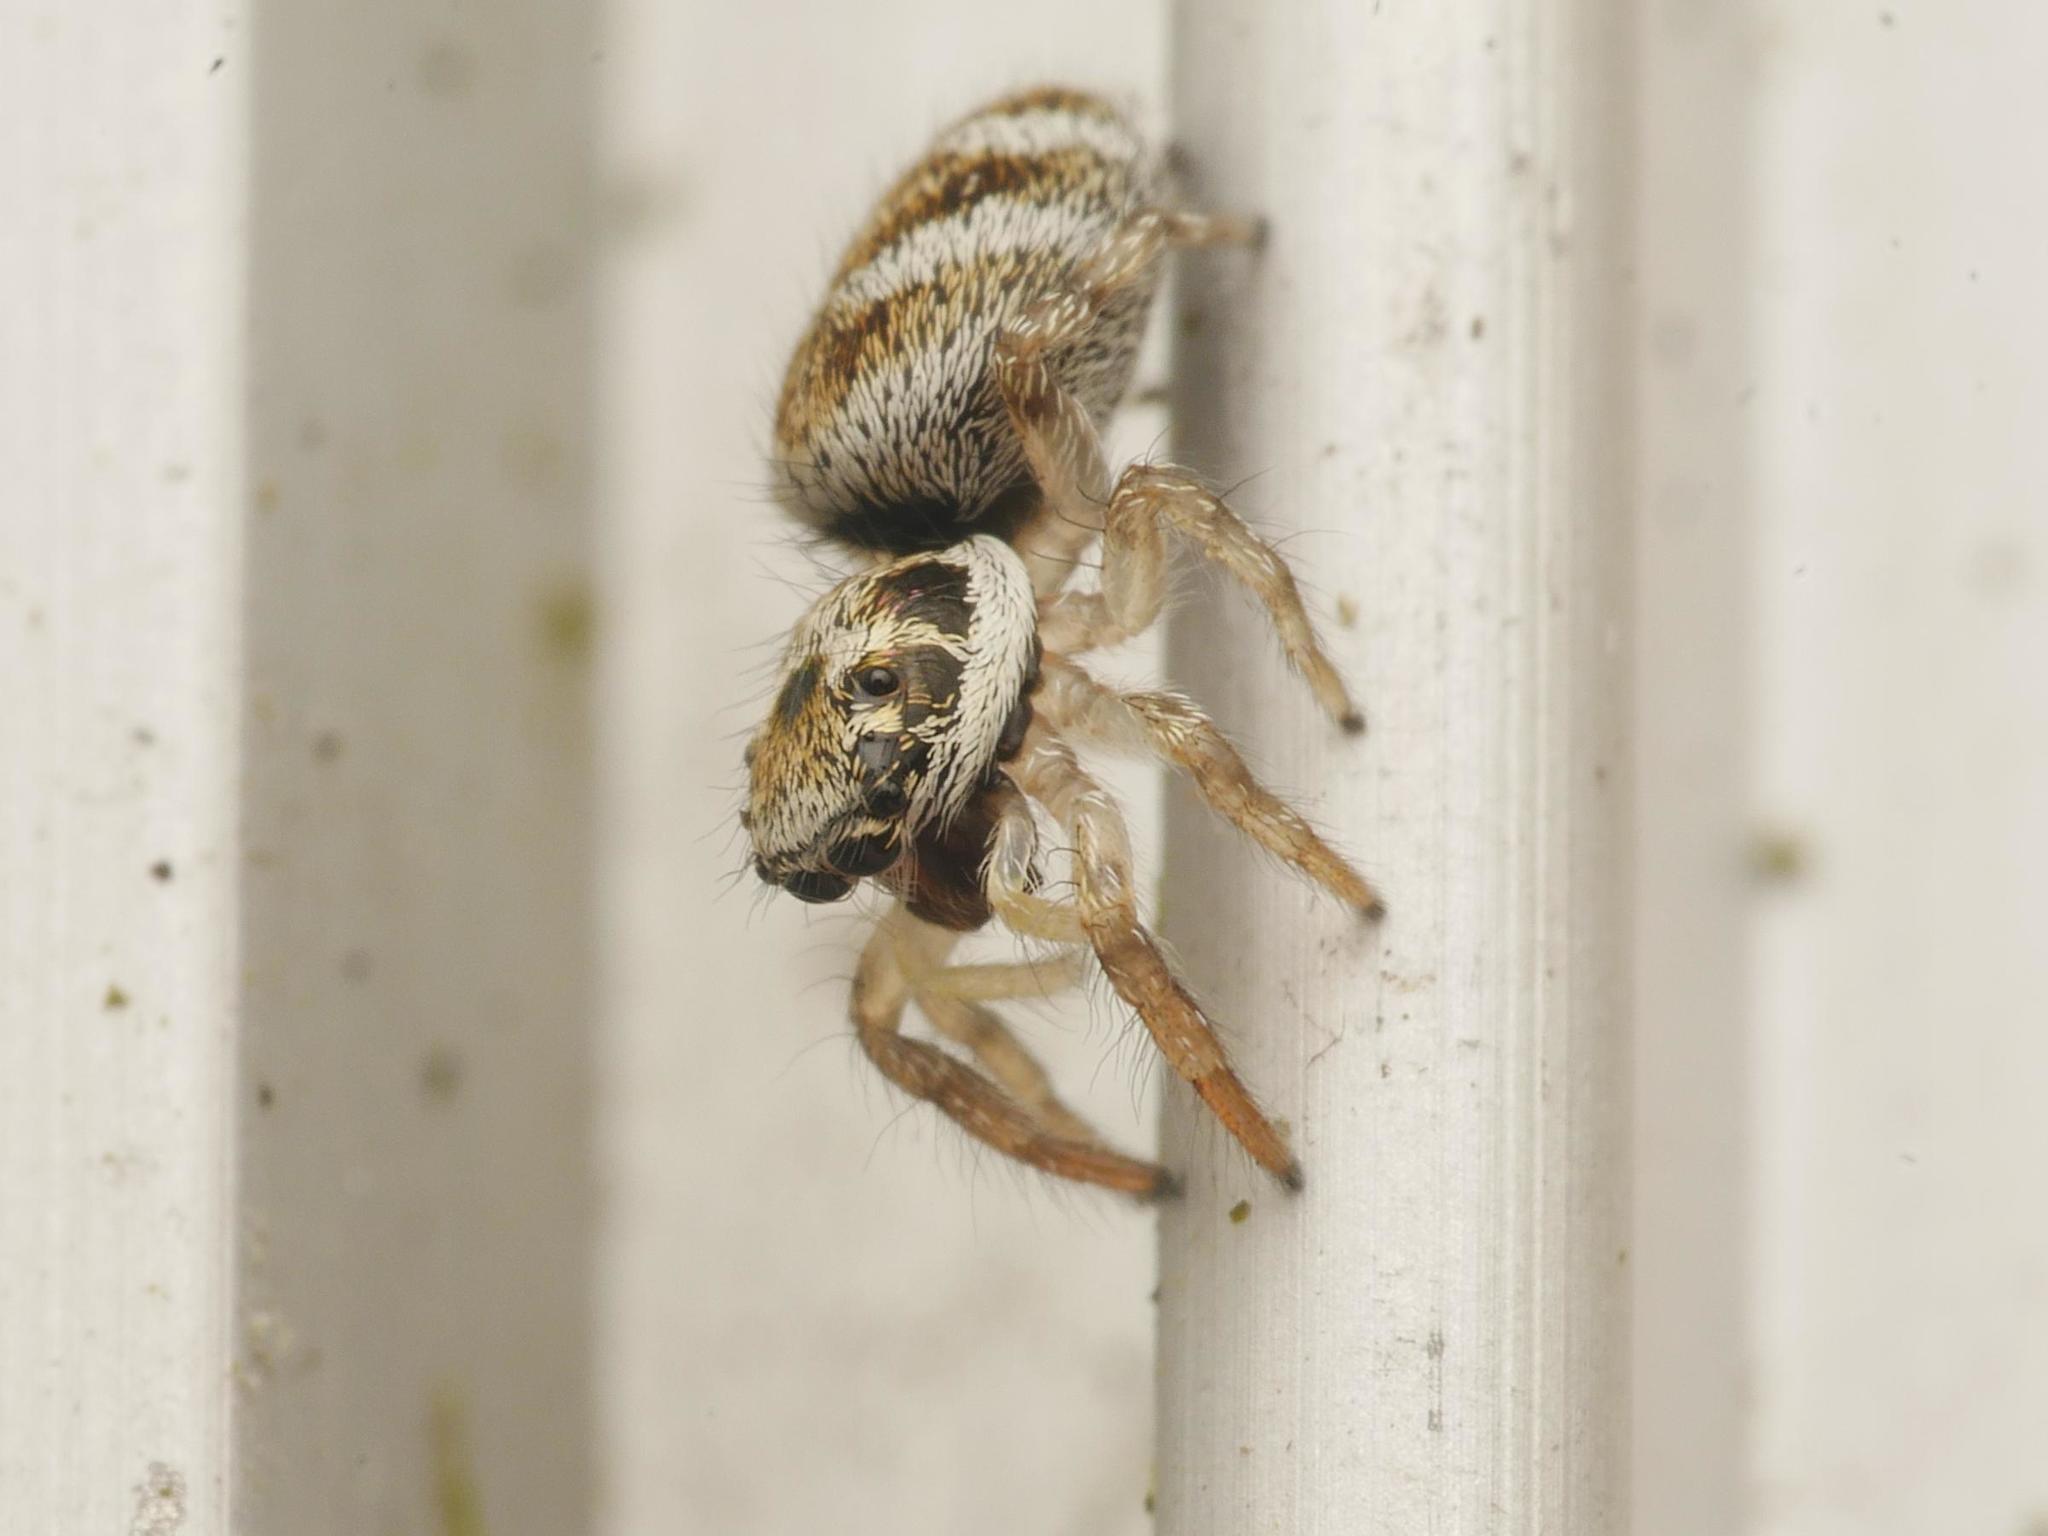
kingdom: Animalia
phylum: Arthropoda
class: Arachnida
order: Araneae
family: Salticidae
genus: Salticus
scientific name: Salticus scenicus
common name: Zebra jumper
